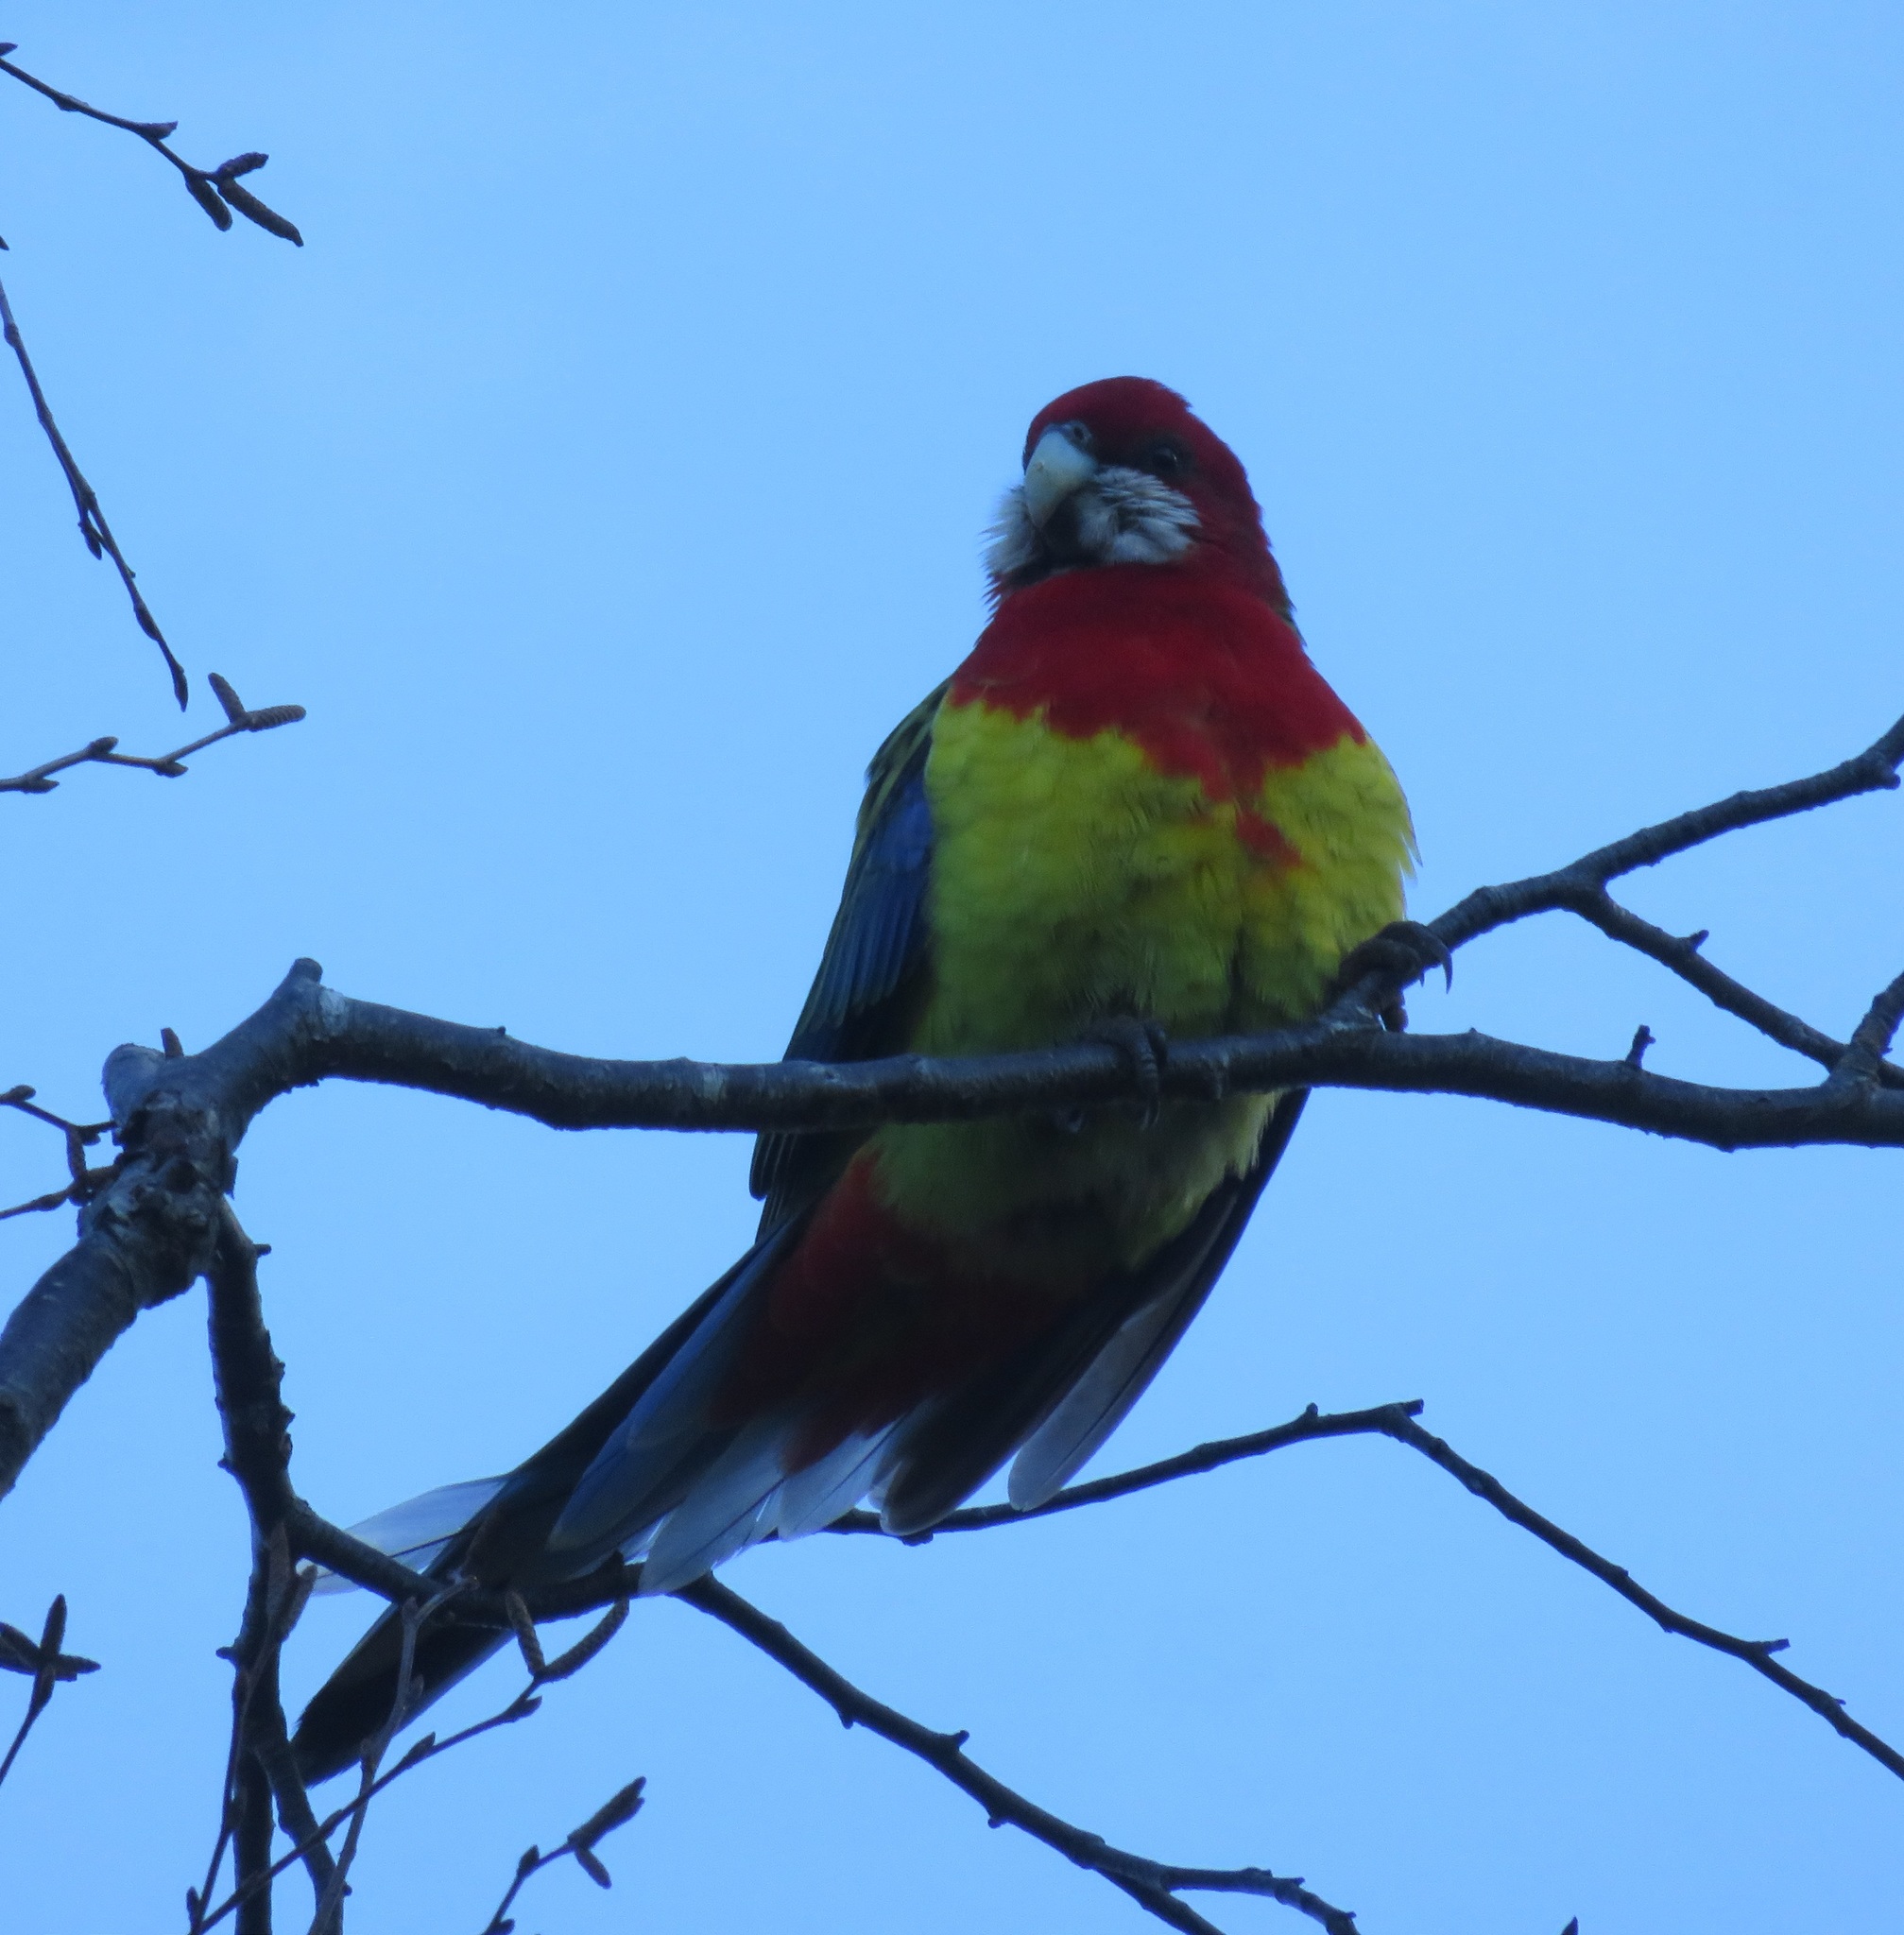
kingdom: Animalia
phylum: Chordata
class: Aves
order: Psittaciformes
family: Psittacidae
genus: Platycercus
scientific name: Platycercus eximius
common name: Eastern rosella
